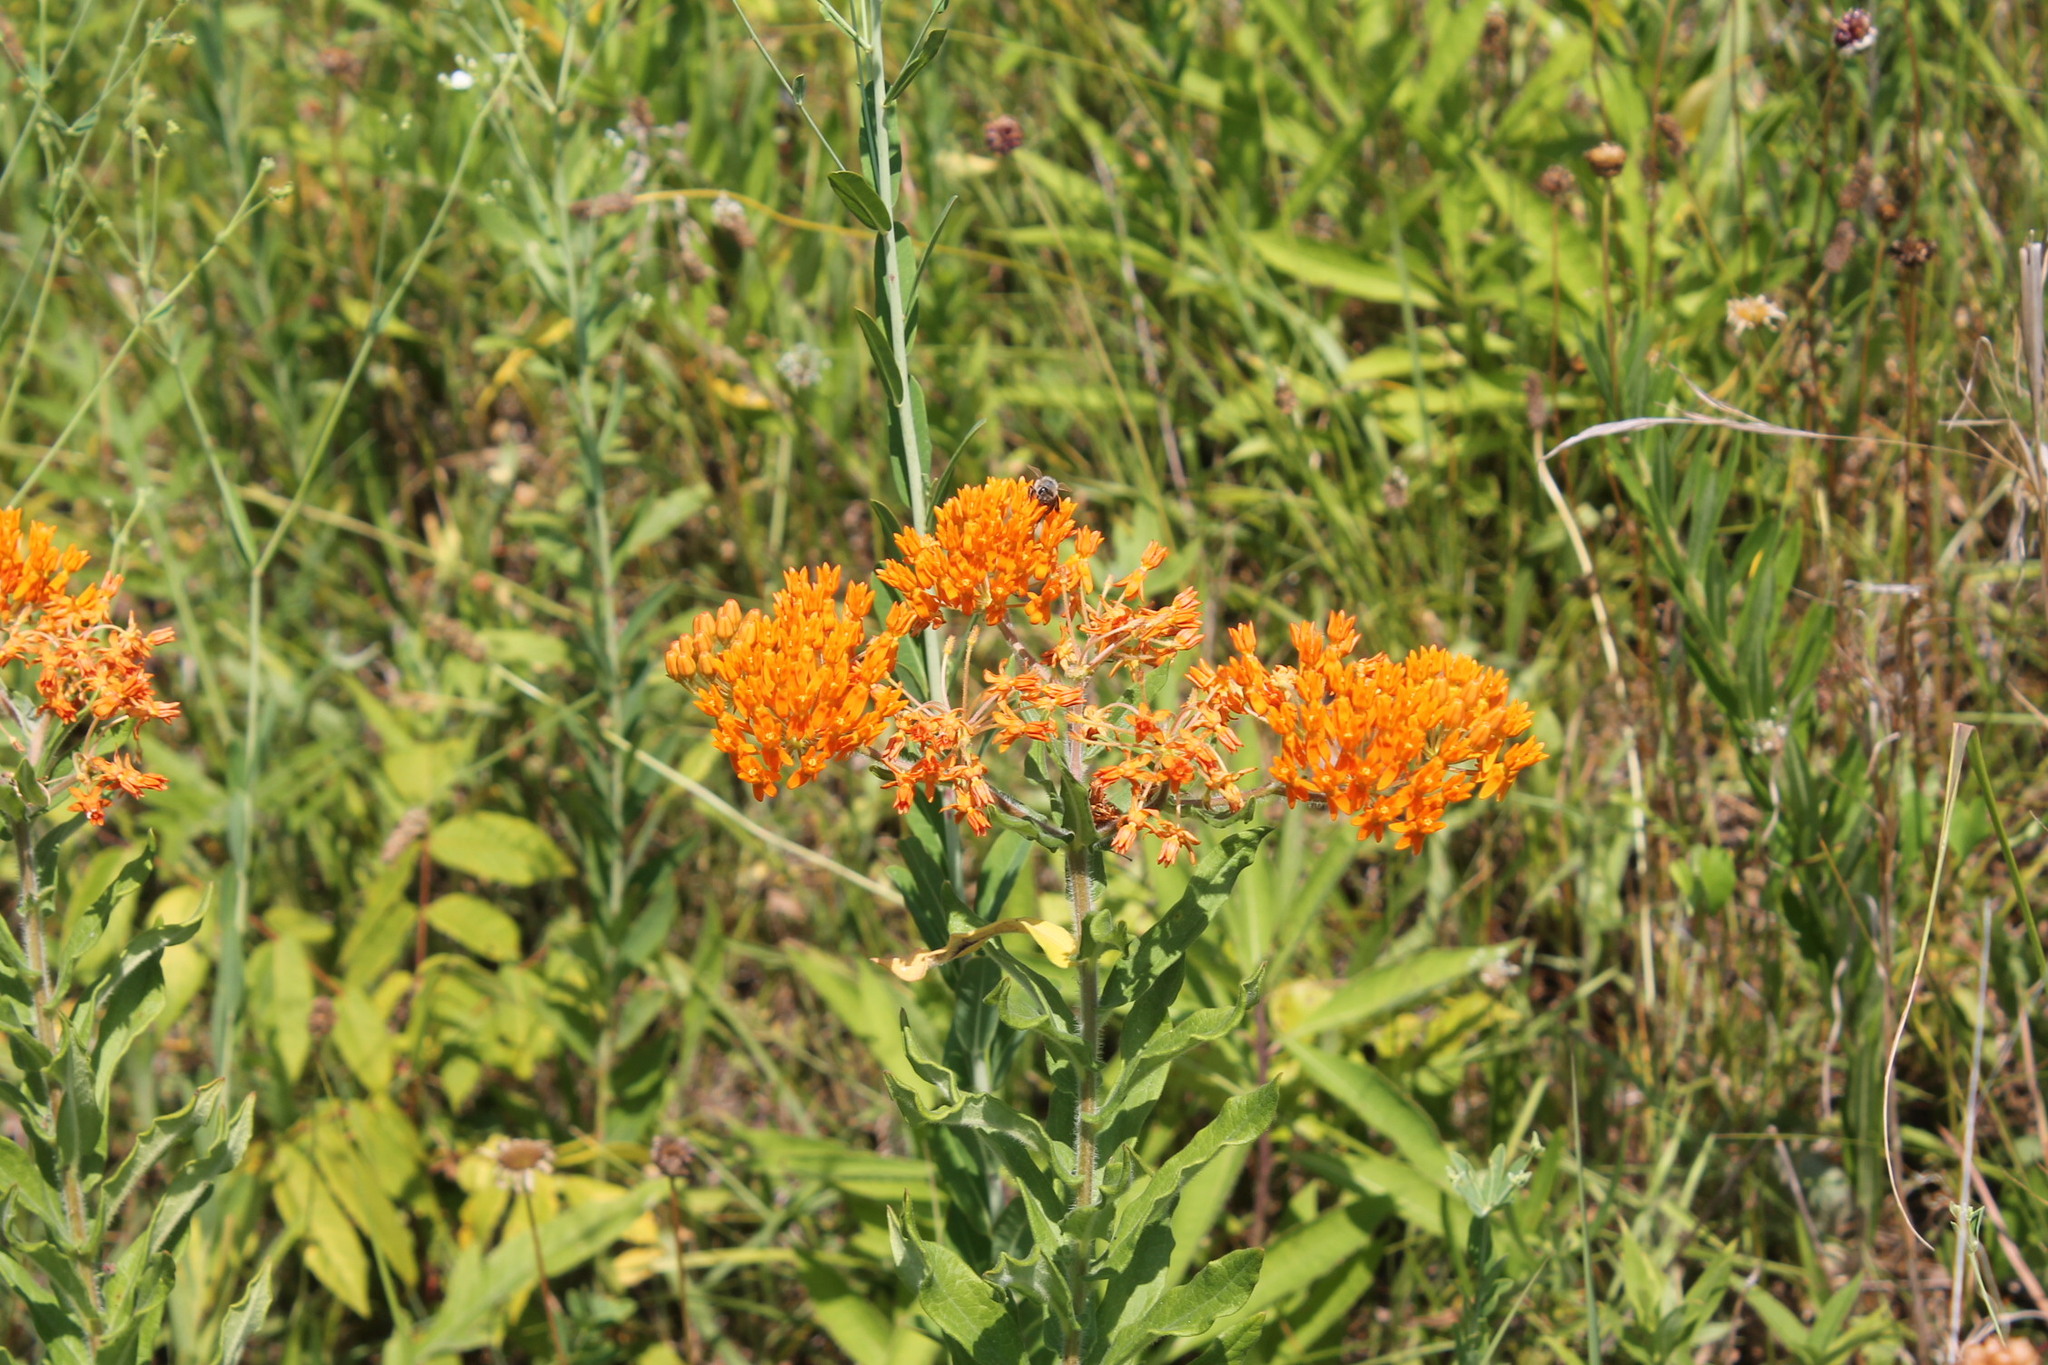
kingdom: Plantae
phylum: Tracheophyta
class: Magnoliopsida
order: Gentianales
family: Apocynaceae
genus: Asclepias
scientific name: Asclepias tuberosa
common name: Butterfly milkweed
